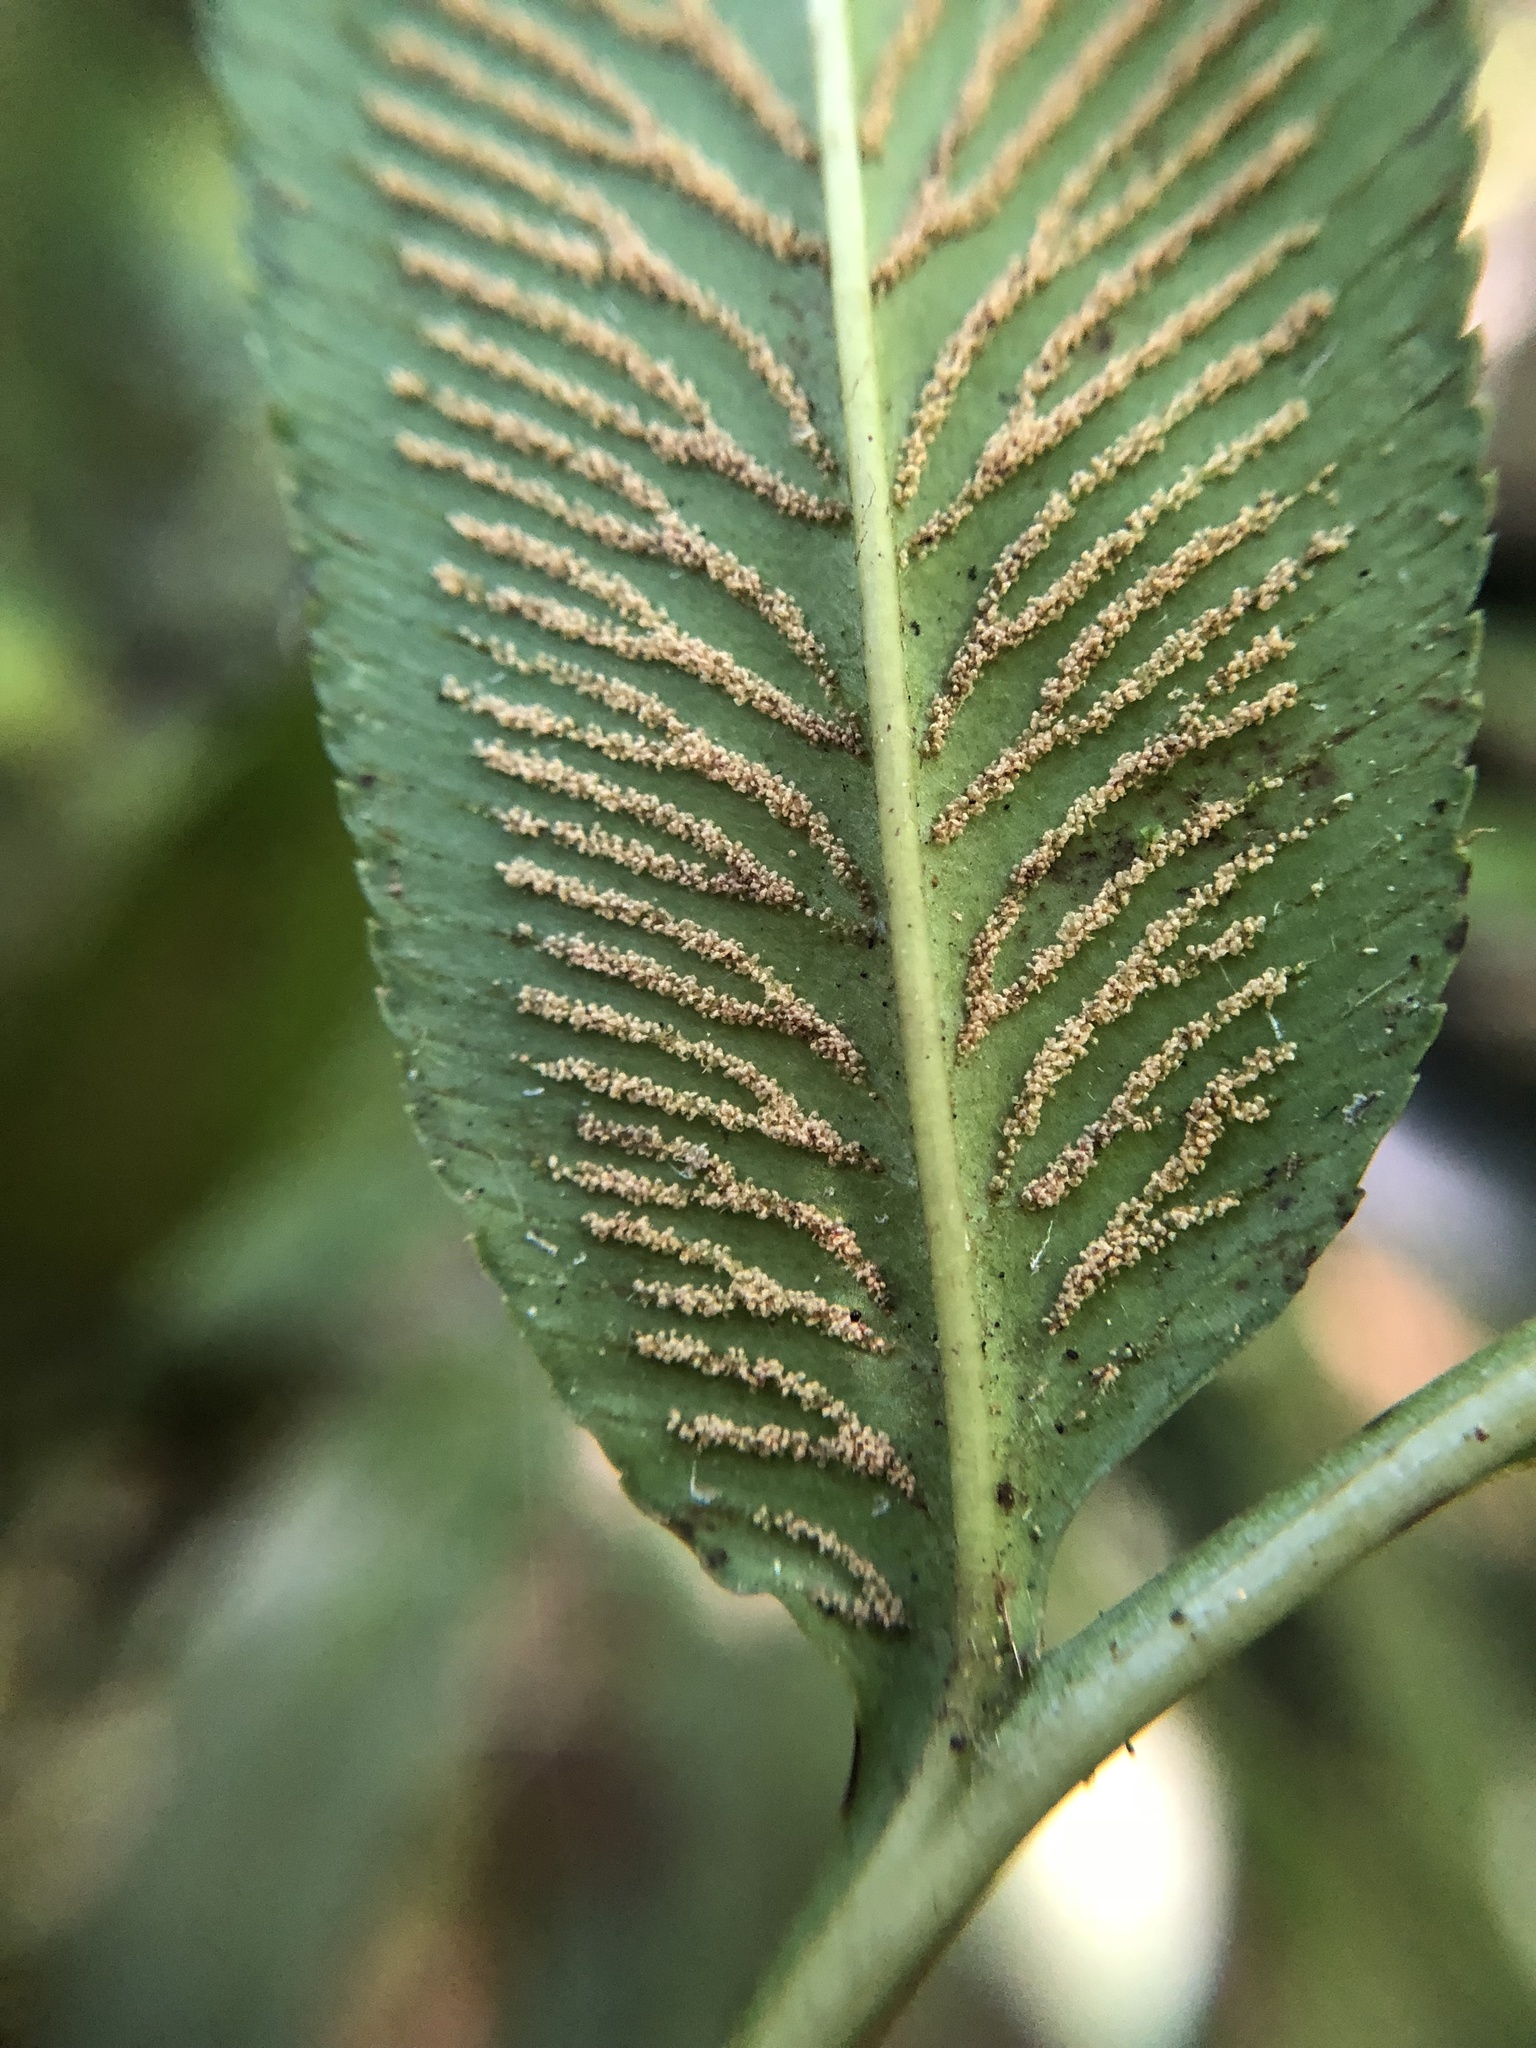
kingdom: Plantae
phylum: Tracheophyta
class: Polypodiopsida
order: Polypodiales
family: Pteridaceae
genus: Coniogramme
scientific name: Coniogramme intermedia
